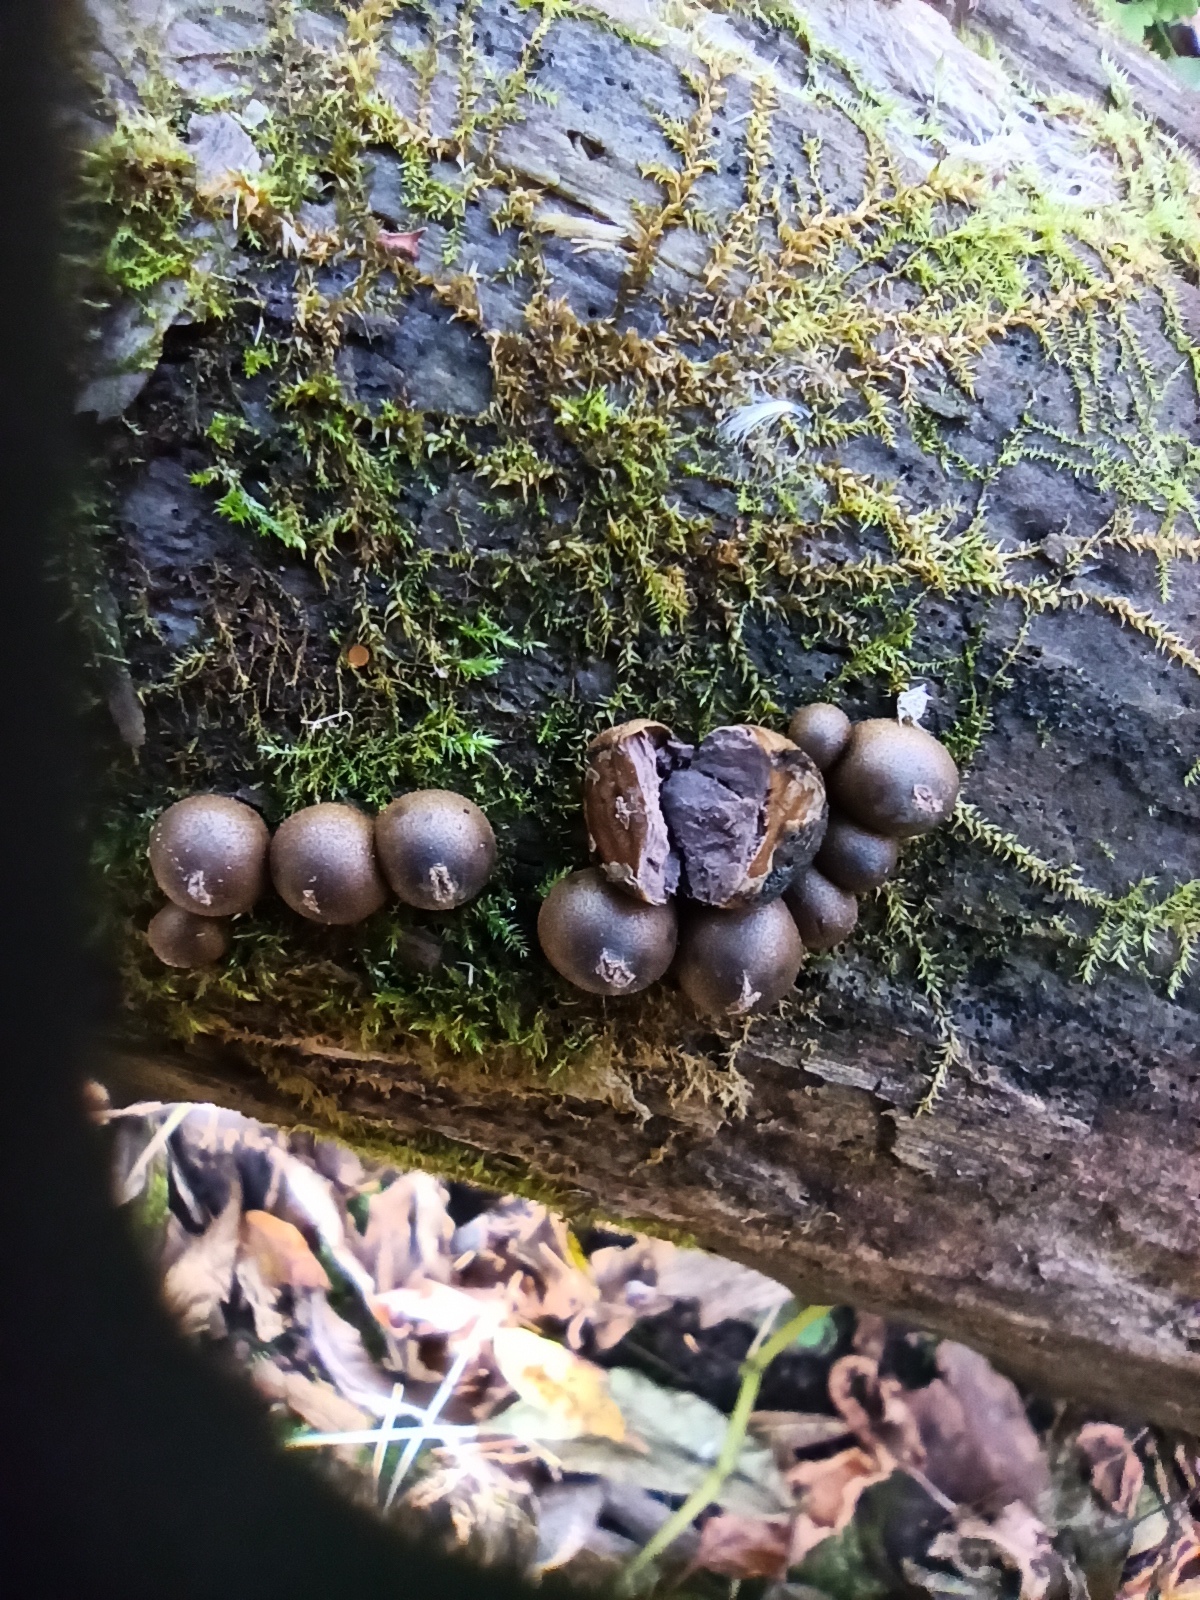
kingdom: Protozoa
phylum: Mycetozoa
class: Myxomycetes
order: Cribrariales
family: Tubiferaceae
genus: Lycogala
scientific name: Lycogala epidendrum
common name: Wolf's milk
